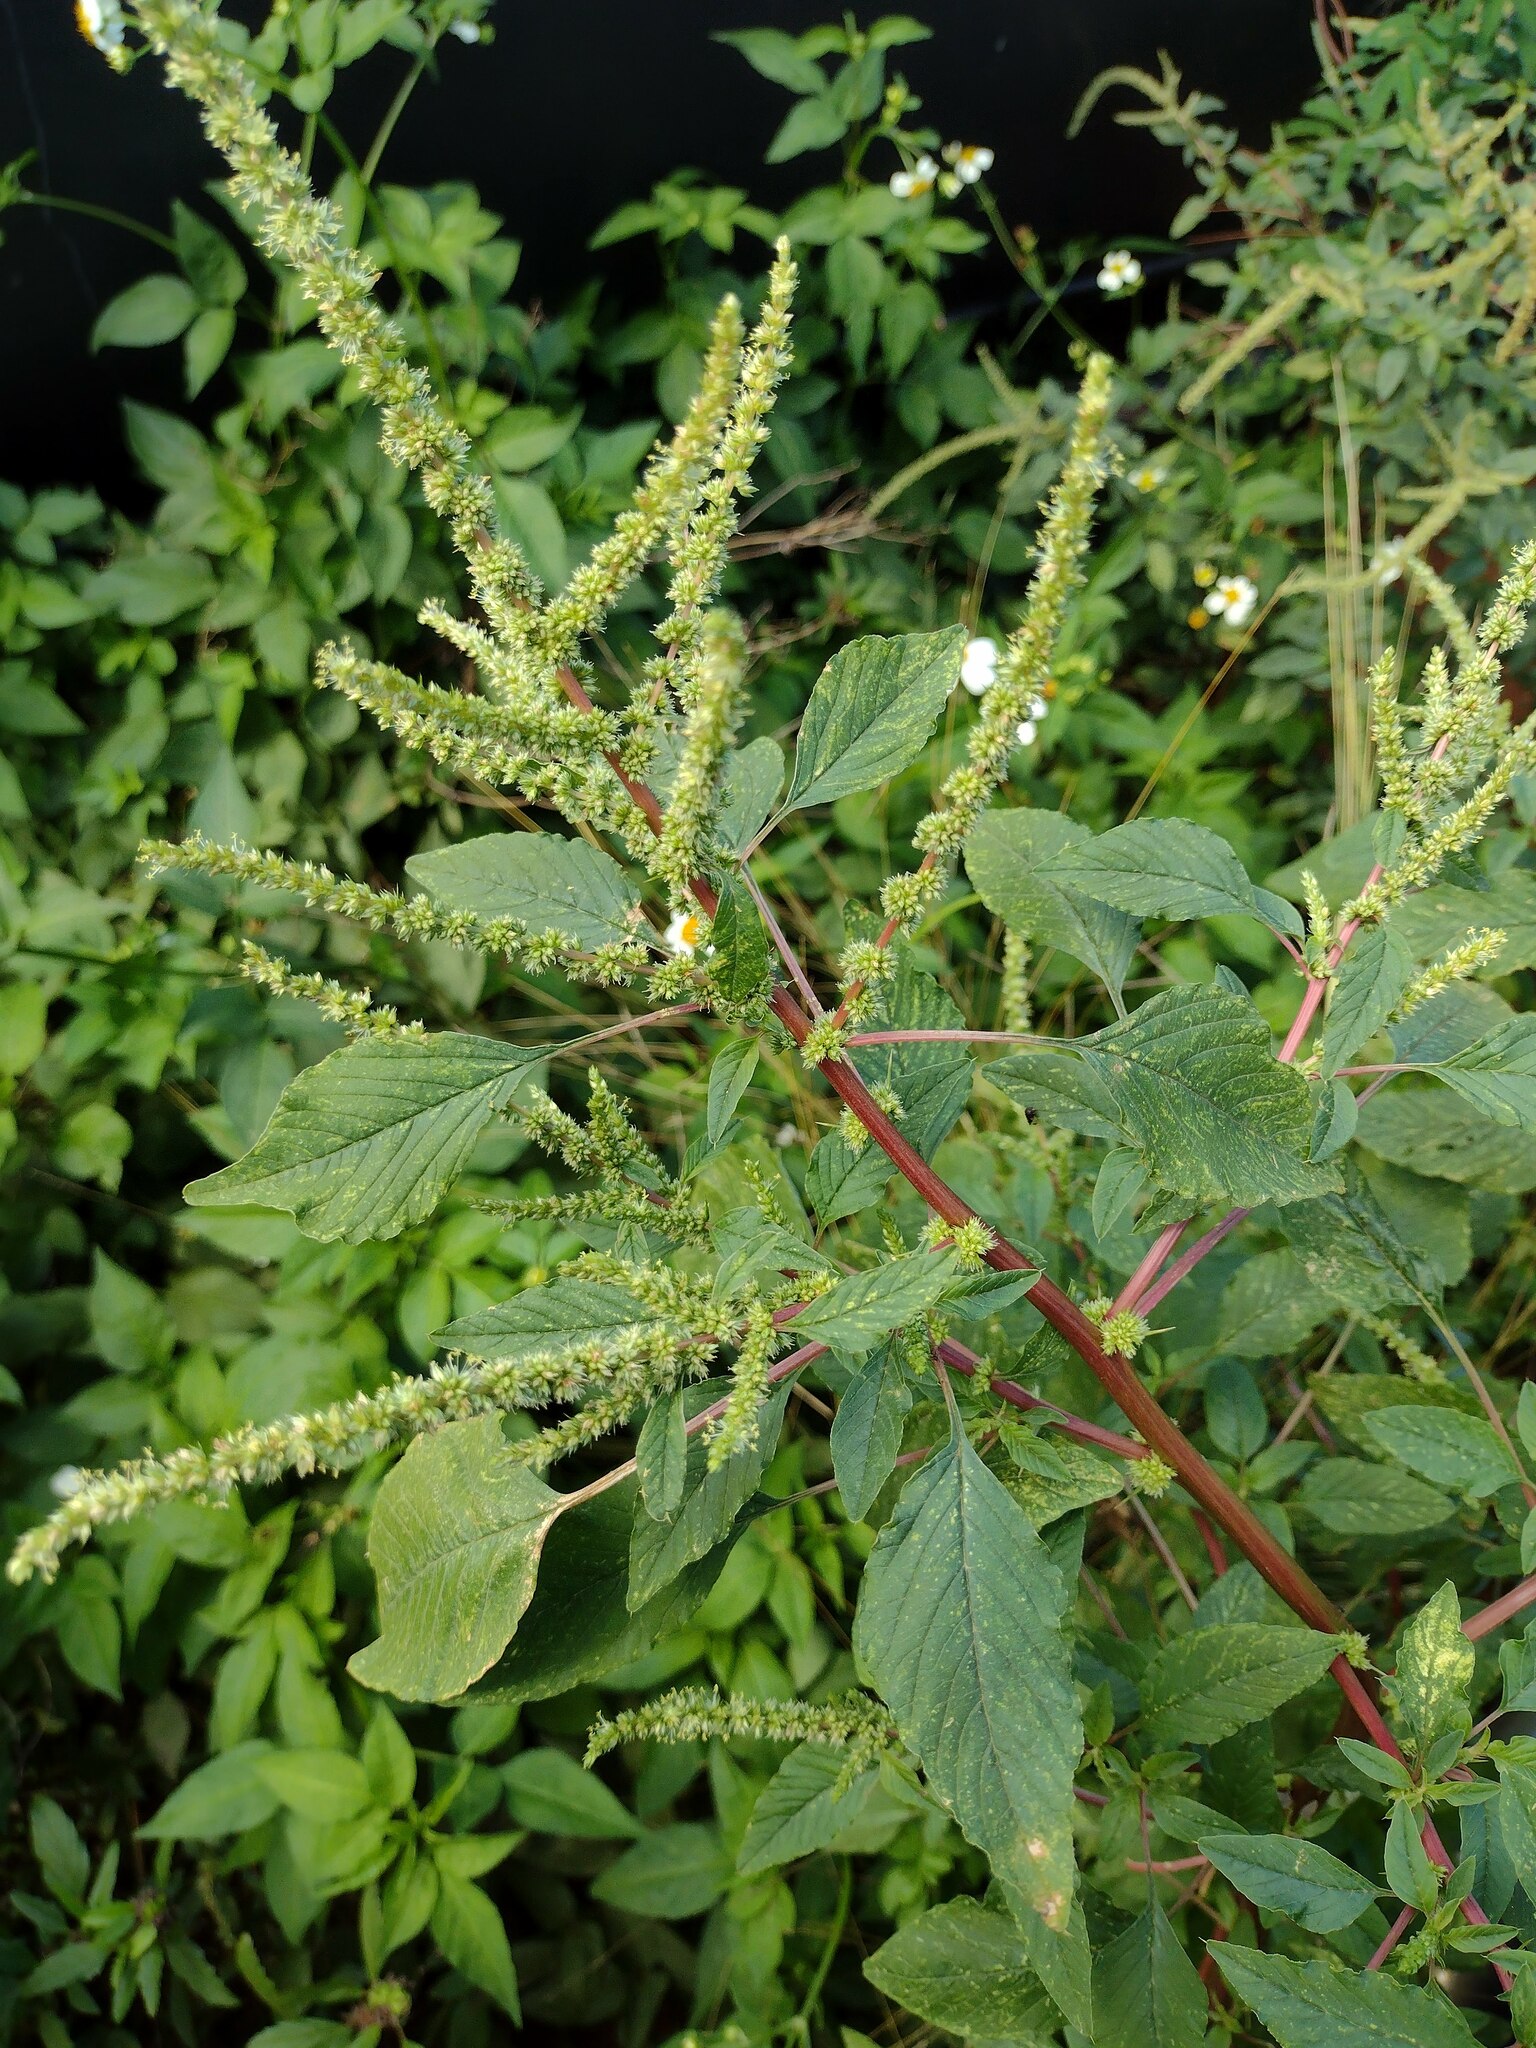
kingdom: Plantae
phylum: Tracheophyta
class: Magnoliopsida
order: Caryophyllales
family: Amaranthaceae
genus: Amaranthus
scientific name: Amaranthus spinosus
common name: Spiny amaranth
